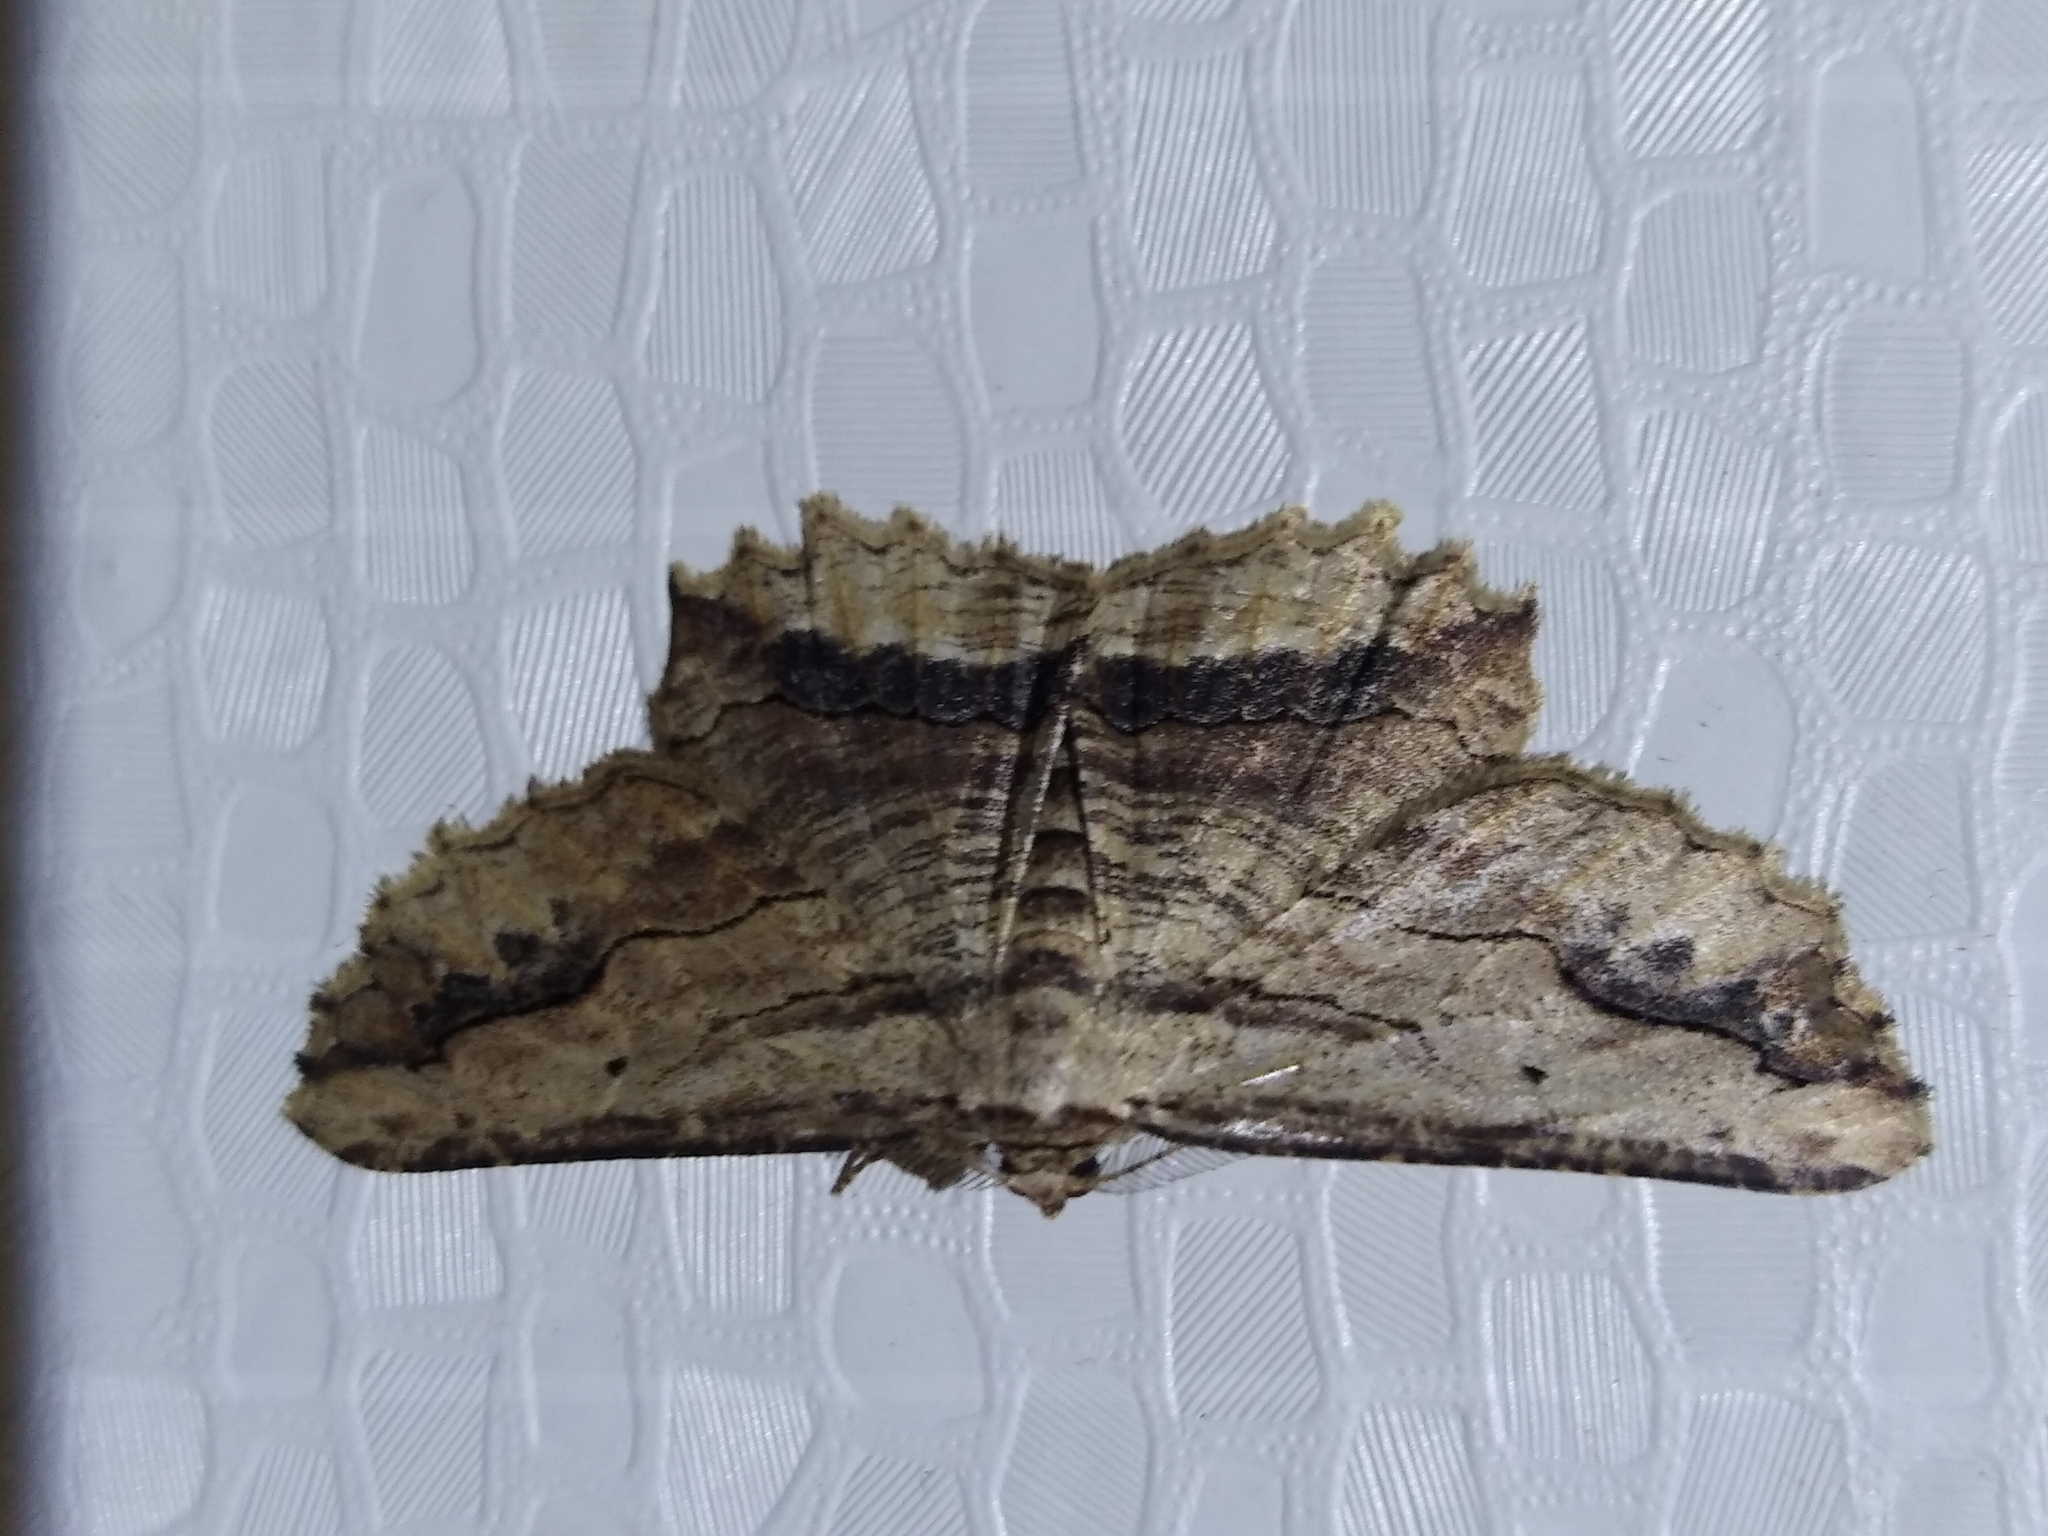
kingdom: Animalia
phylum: Arthropoda
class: Insecta
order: Lepidoptera
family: Geometridae
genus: Menophra
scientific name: Menophra abruptaria
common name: Waved umber
